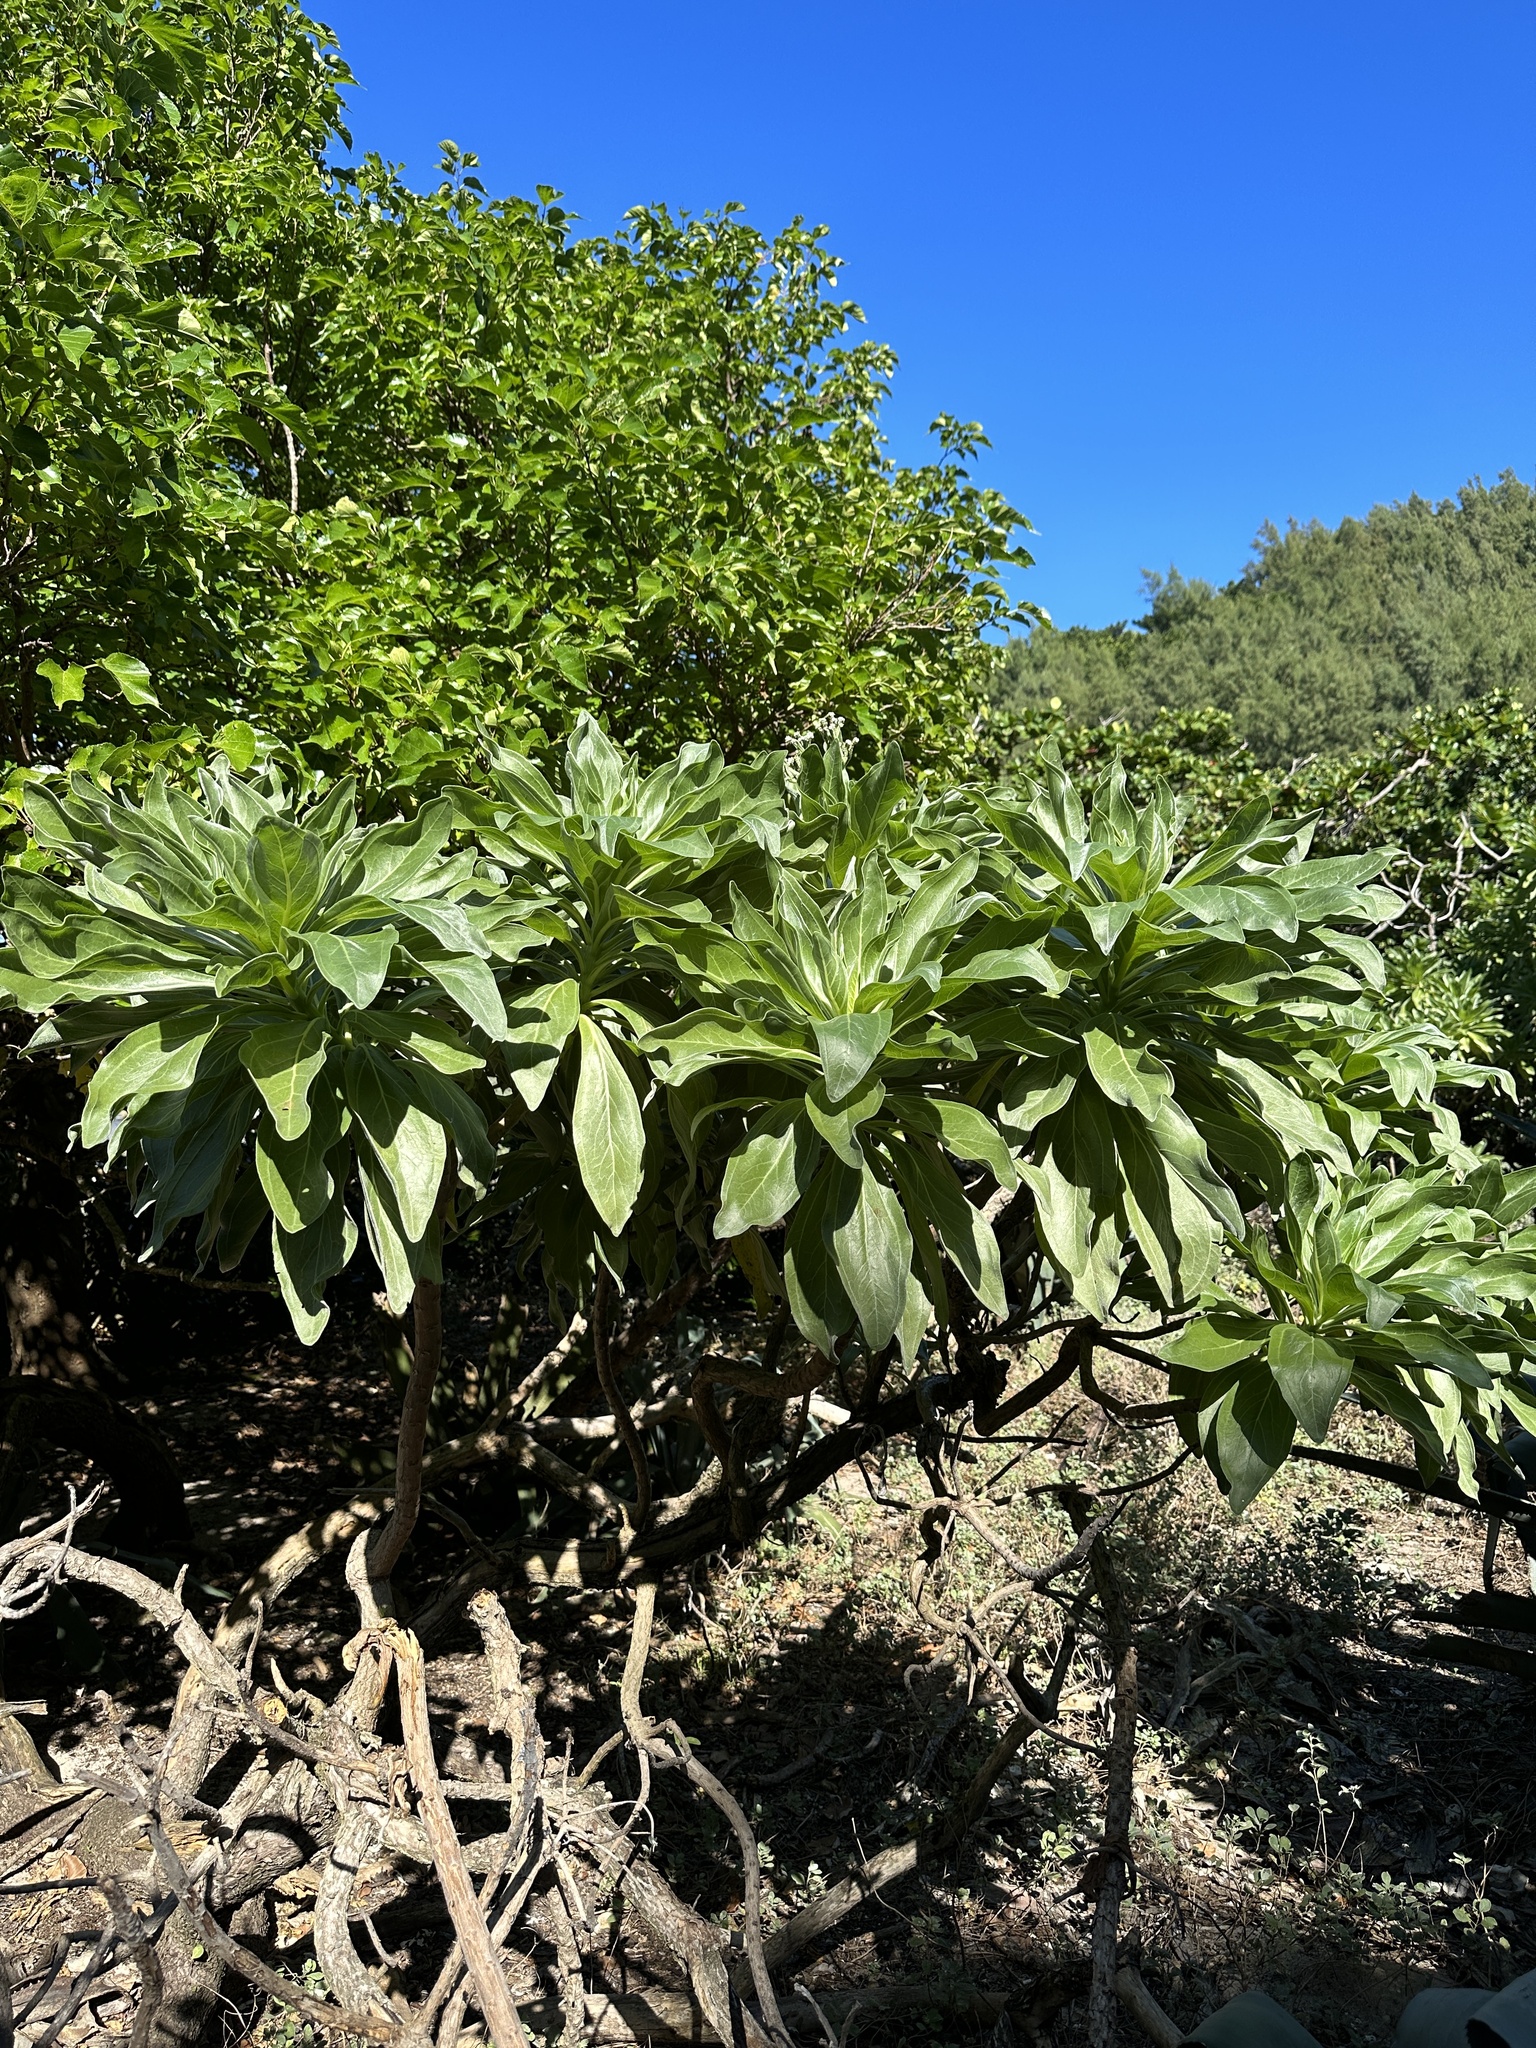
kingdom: Plantae
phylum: Tracheophyta
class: Magnoliopsida
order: Boraginales
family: Heliotropiaceae
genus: Heliotropium
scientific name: Heliotropium velutinum
